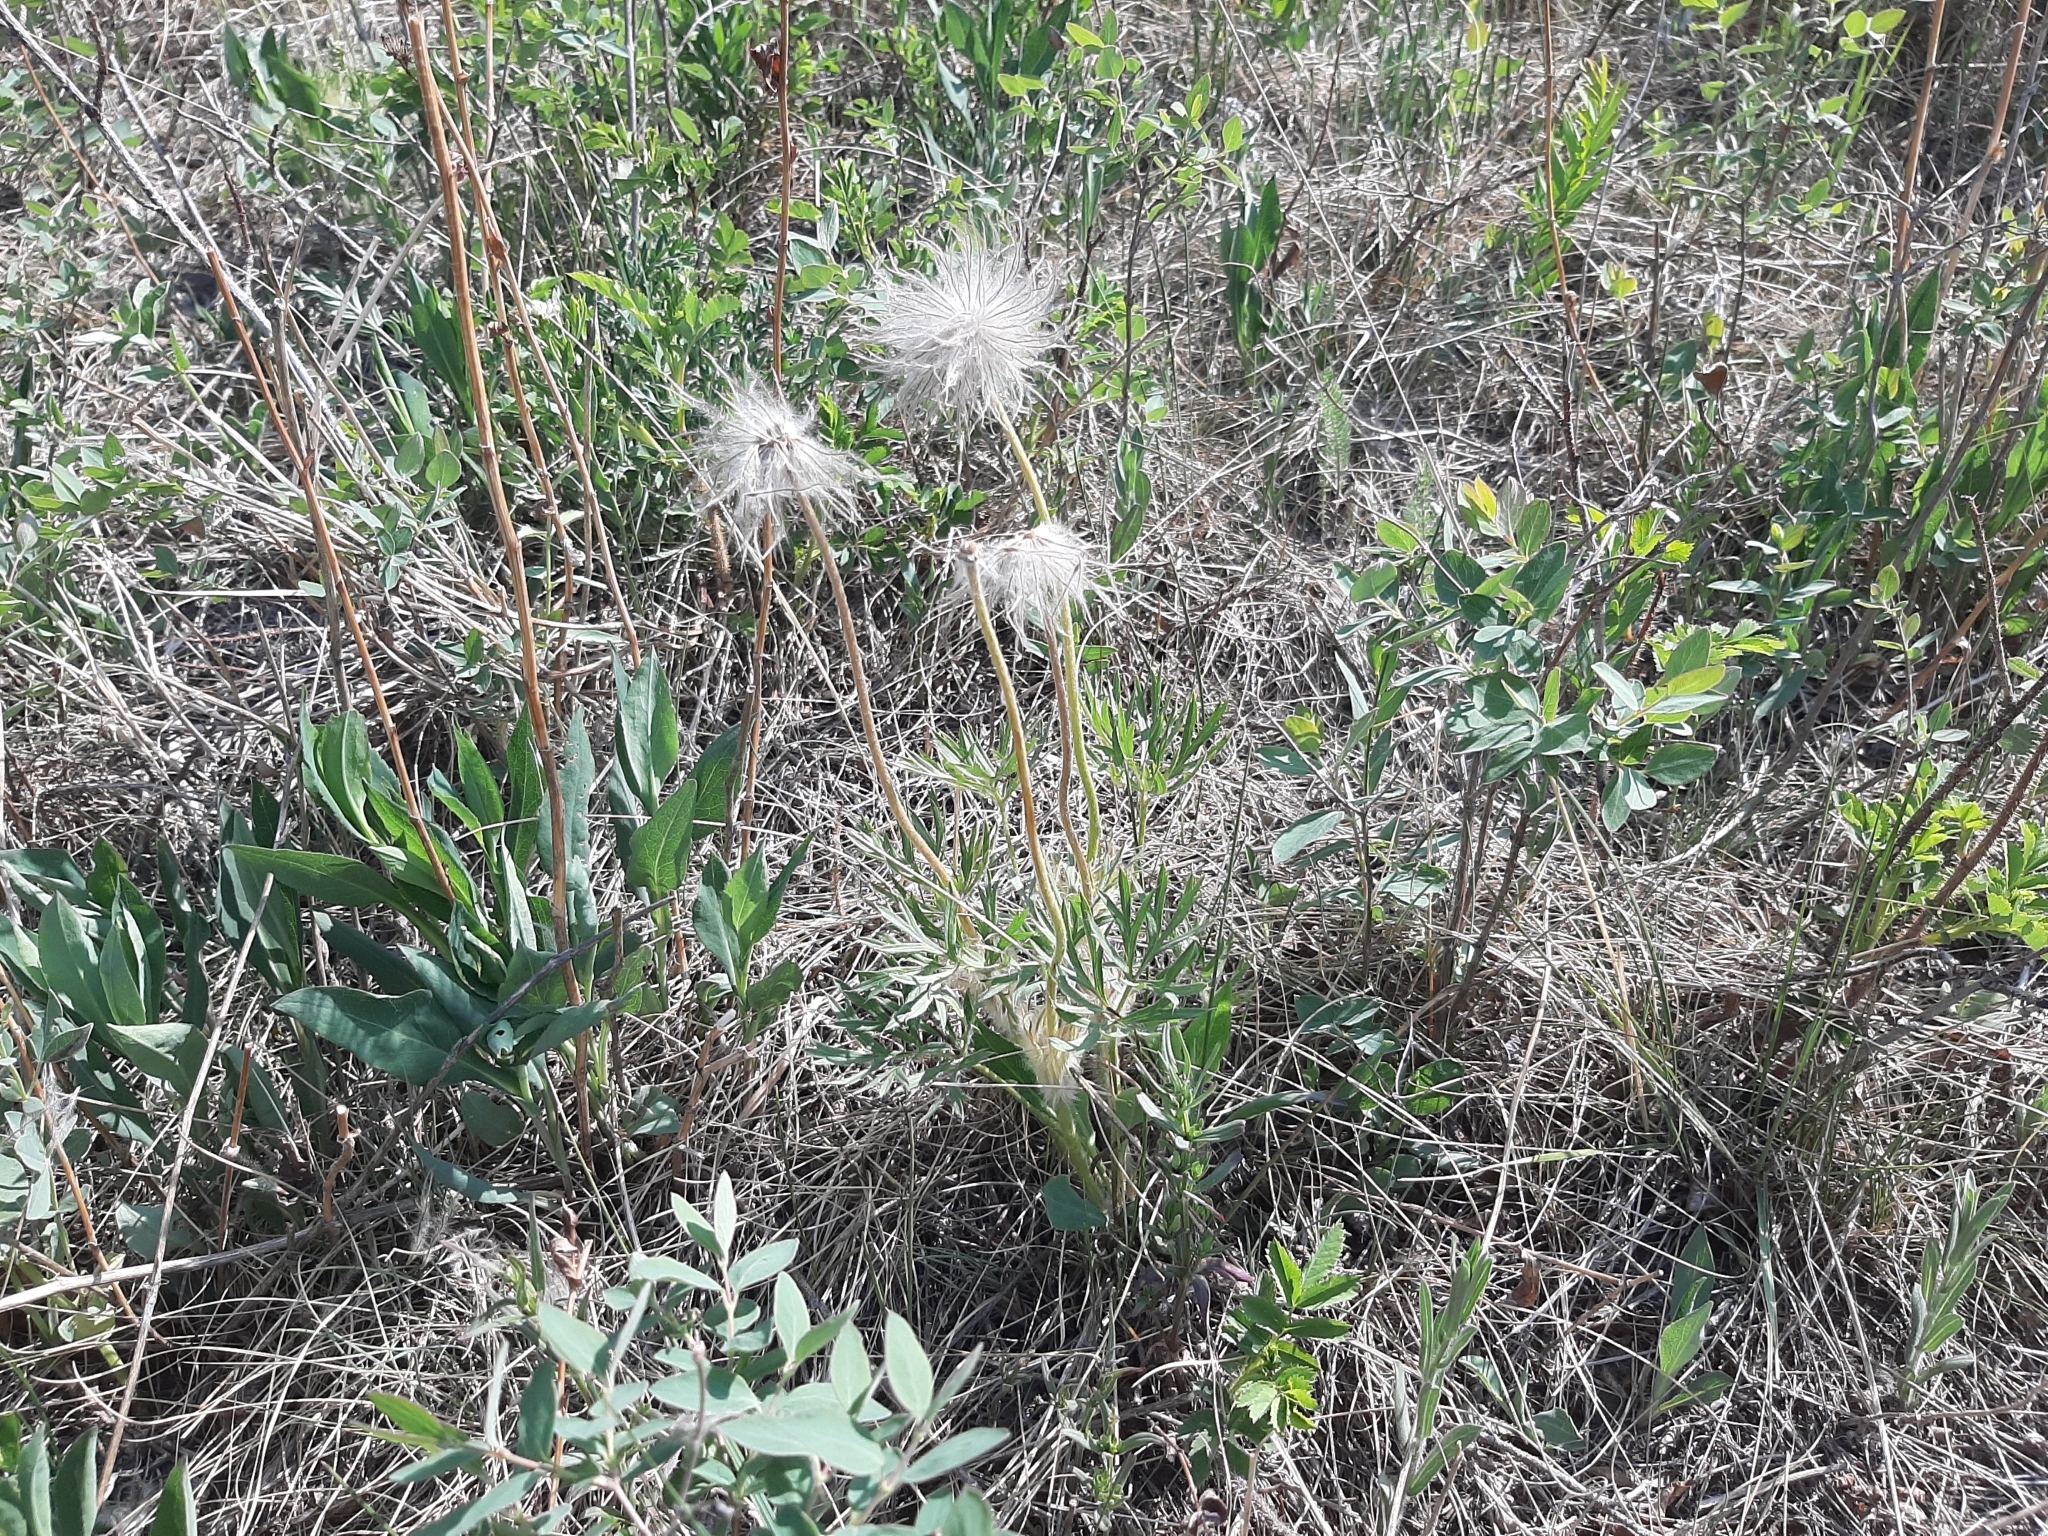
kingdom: Plantae
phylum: Tracheophyta
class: Magnoliopsida
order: Ranunculales
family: Ranunculaceae
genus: Pulsatilla
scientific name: Pulsatilla nuttalliana
